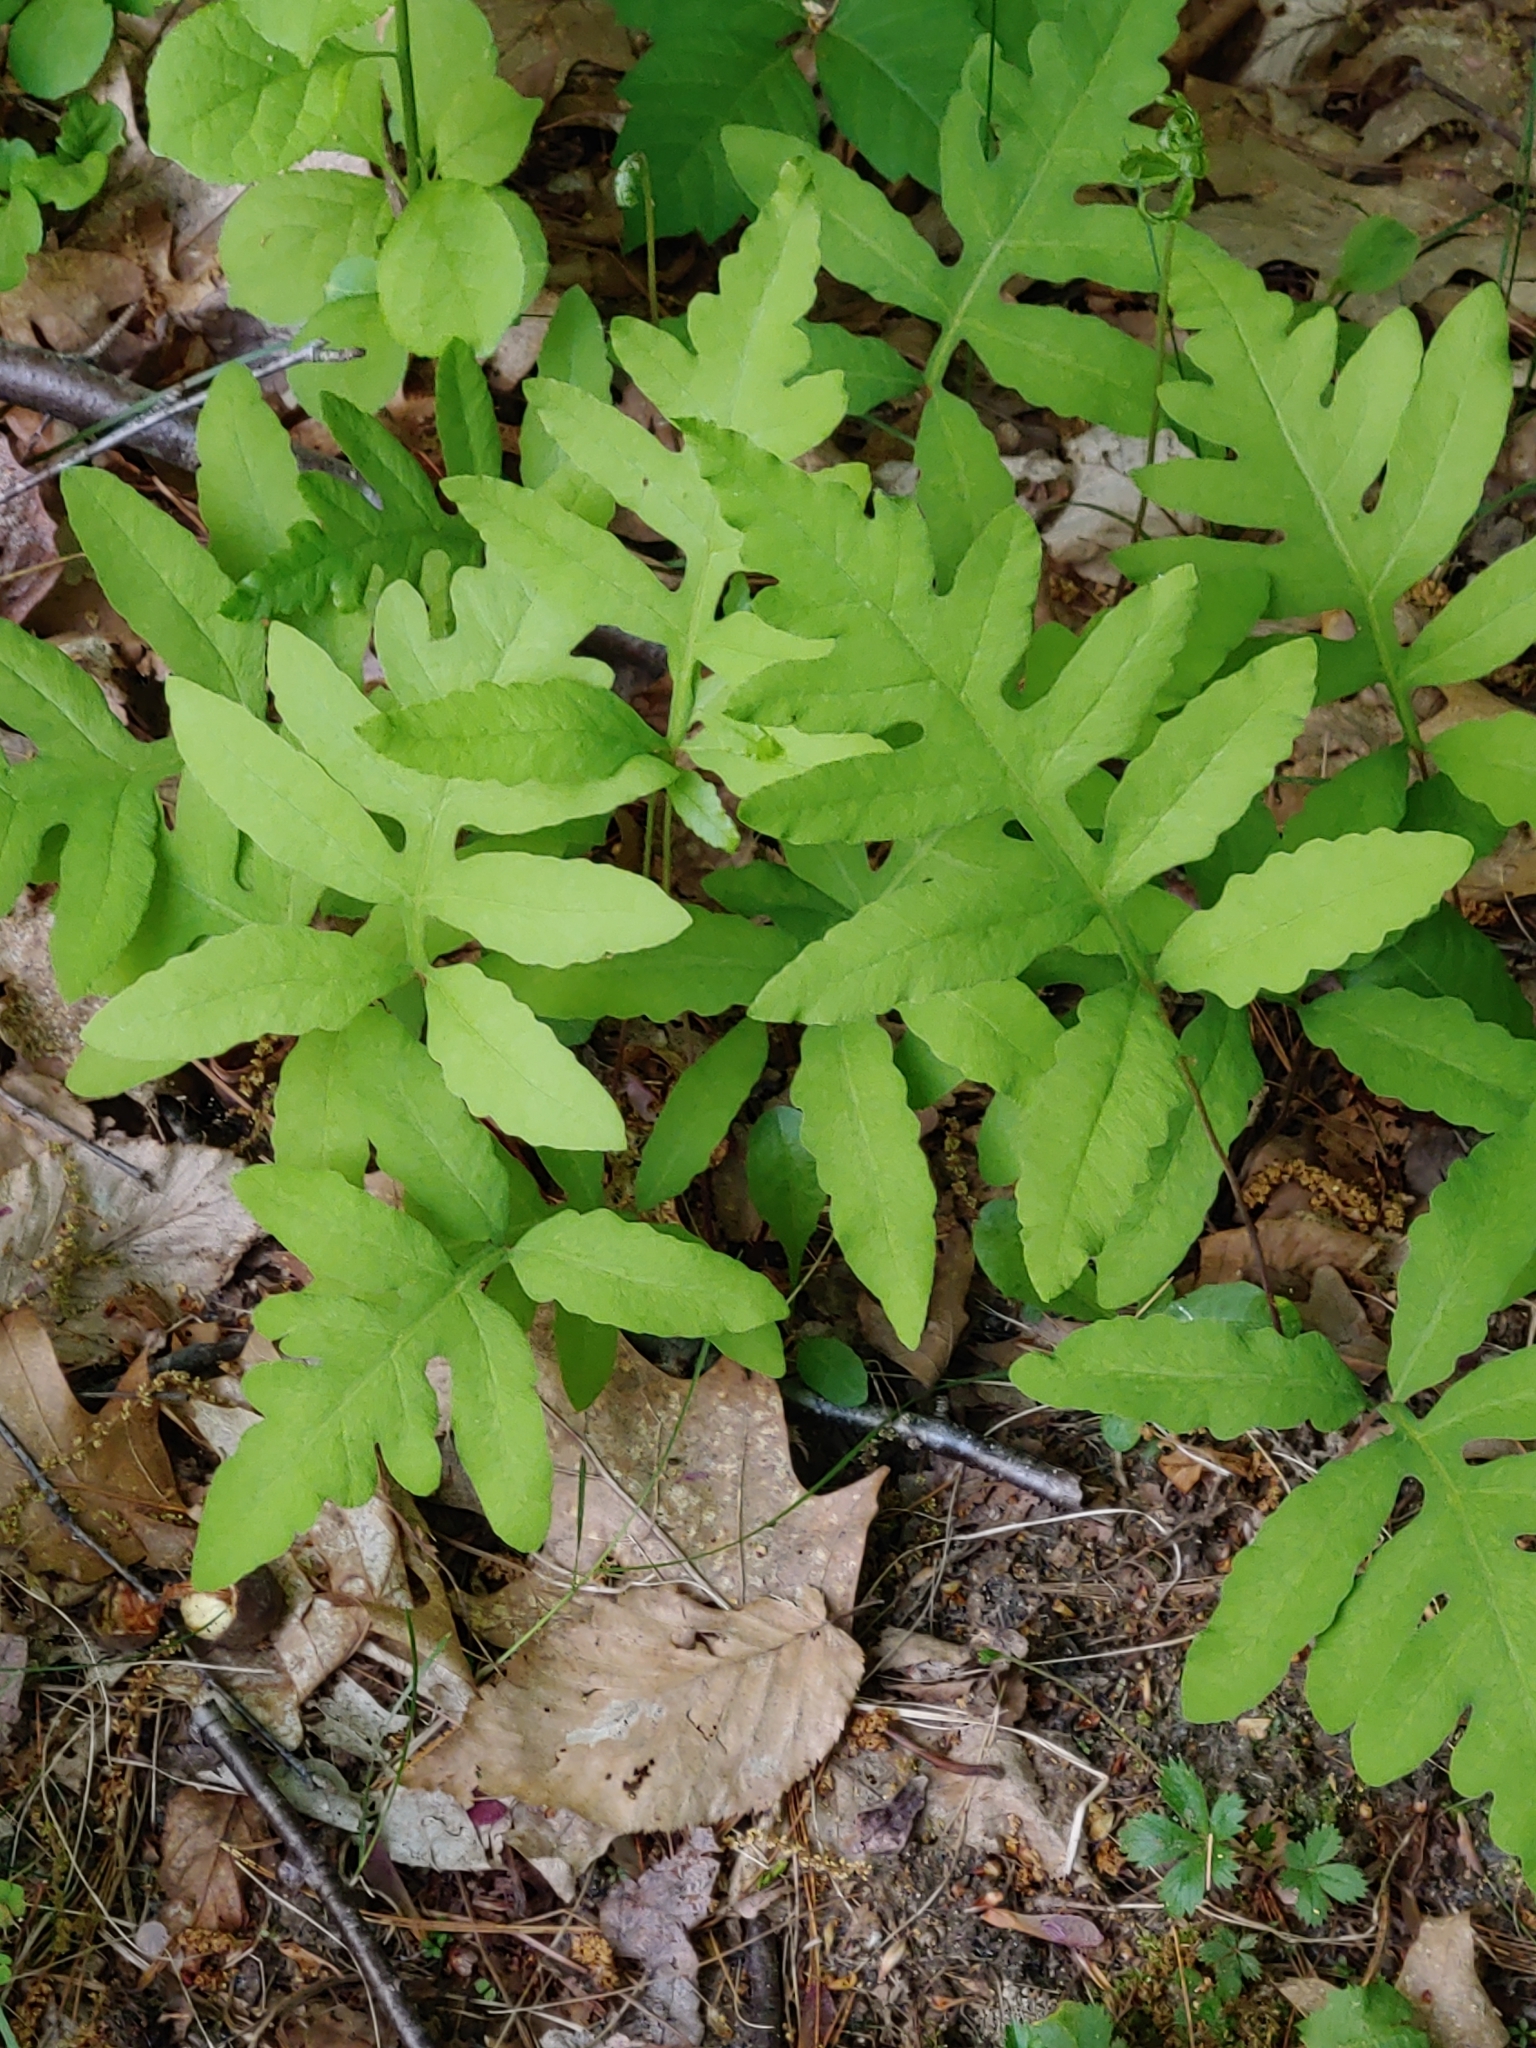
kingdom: Plantae
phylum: Tracheophyta
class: Polypodiopsida
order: Polypodiales
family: Onocleaceae
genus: Onoclea
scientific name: Onoclea sensibilis
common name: Sensitive fern
